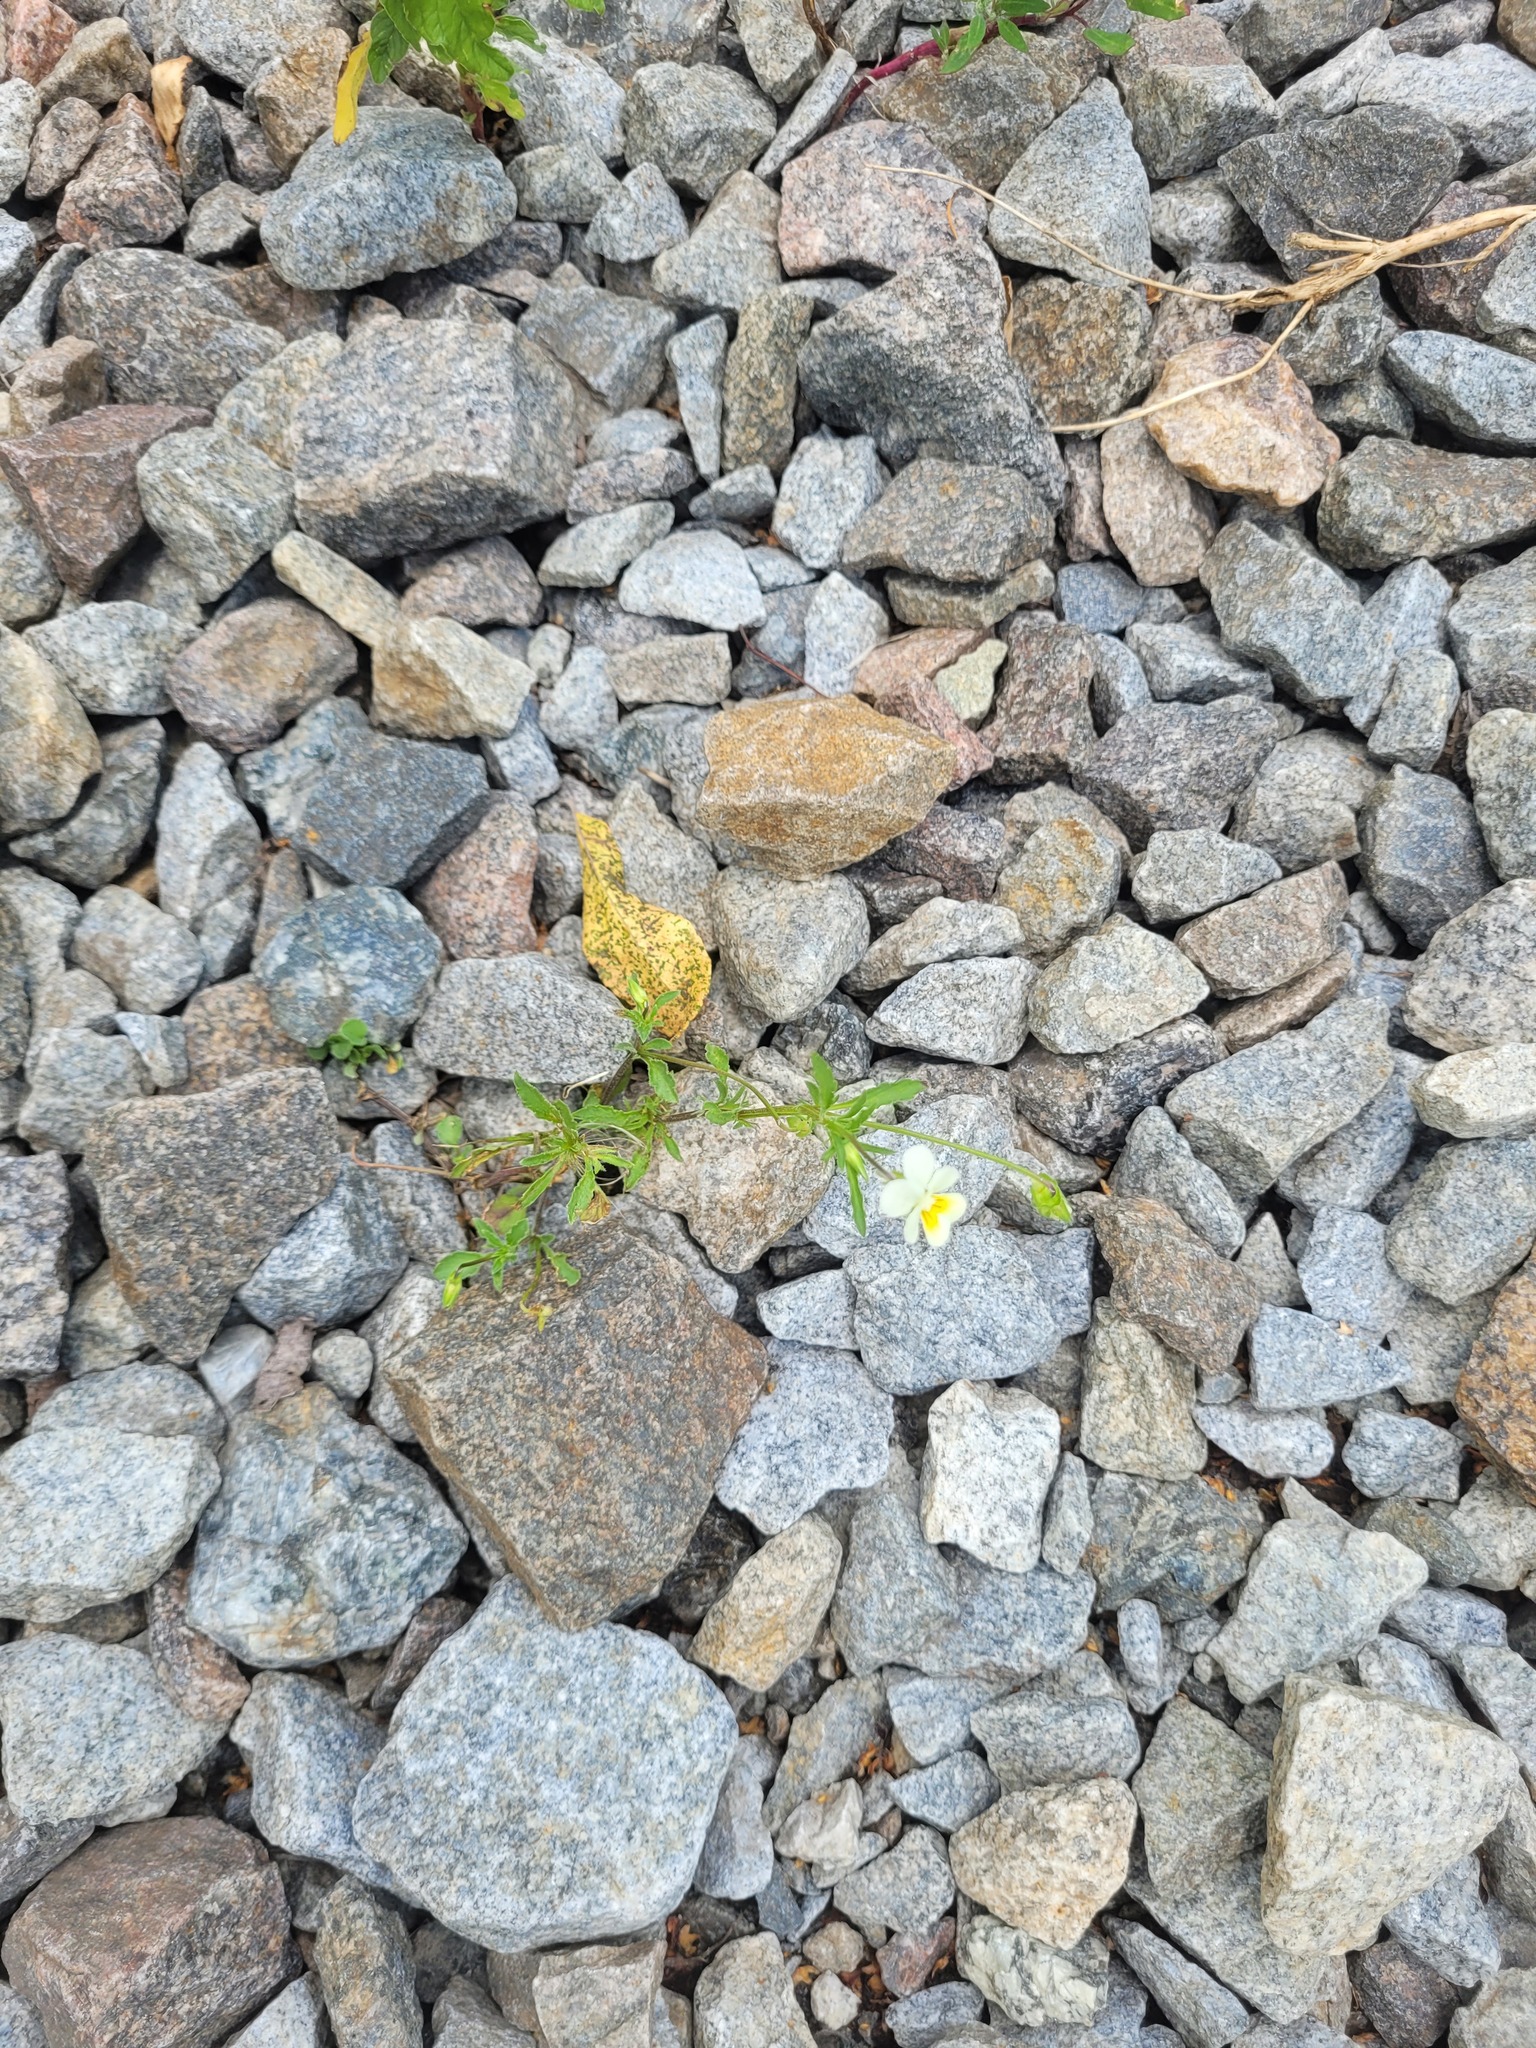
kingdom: Plantae
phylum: Tracheophyta
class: Magnoliopsida
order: Malpighiales
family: Violaceae
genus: Viola
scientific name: Viola arvensis
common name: Field pansy
